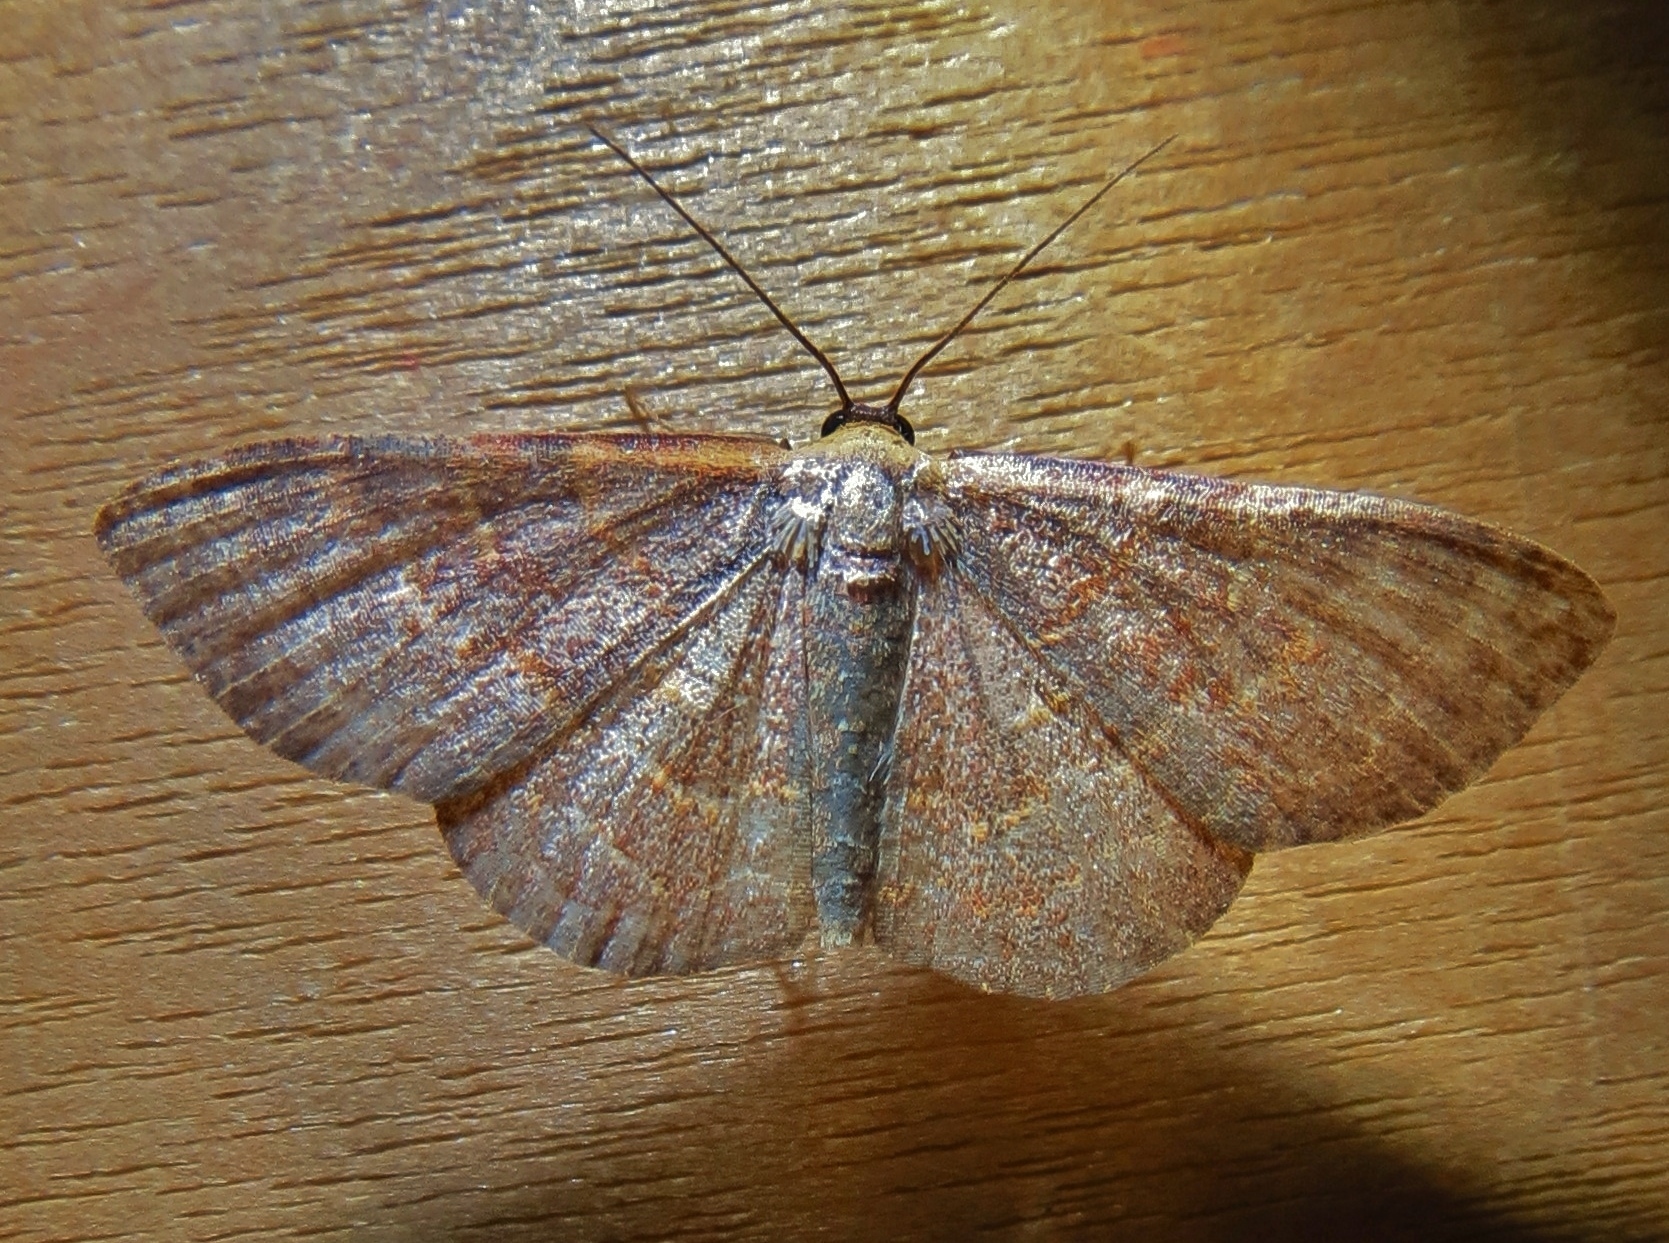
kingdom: Animalia
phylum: Arthropoda
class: Insecta
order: Lepidoptera
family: Geometridae
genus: Leptostales
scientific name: Leptostales pannaria
